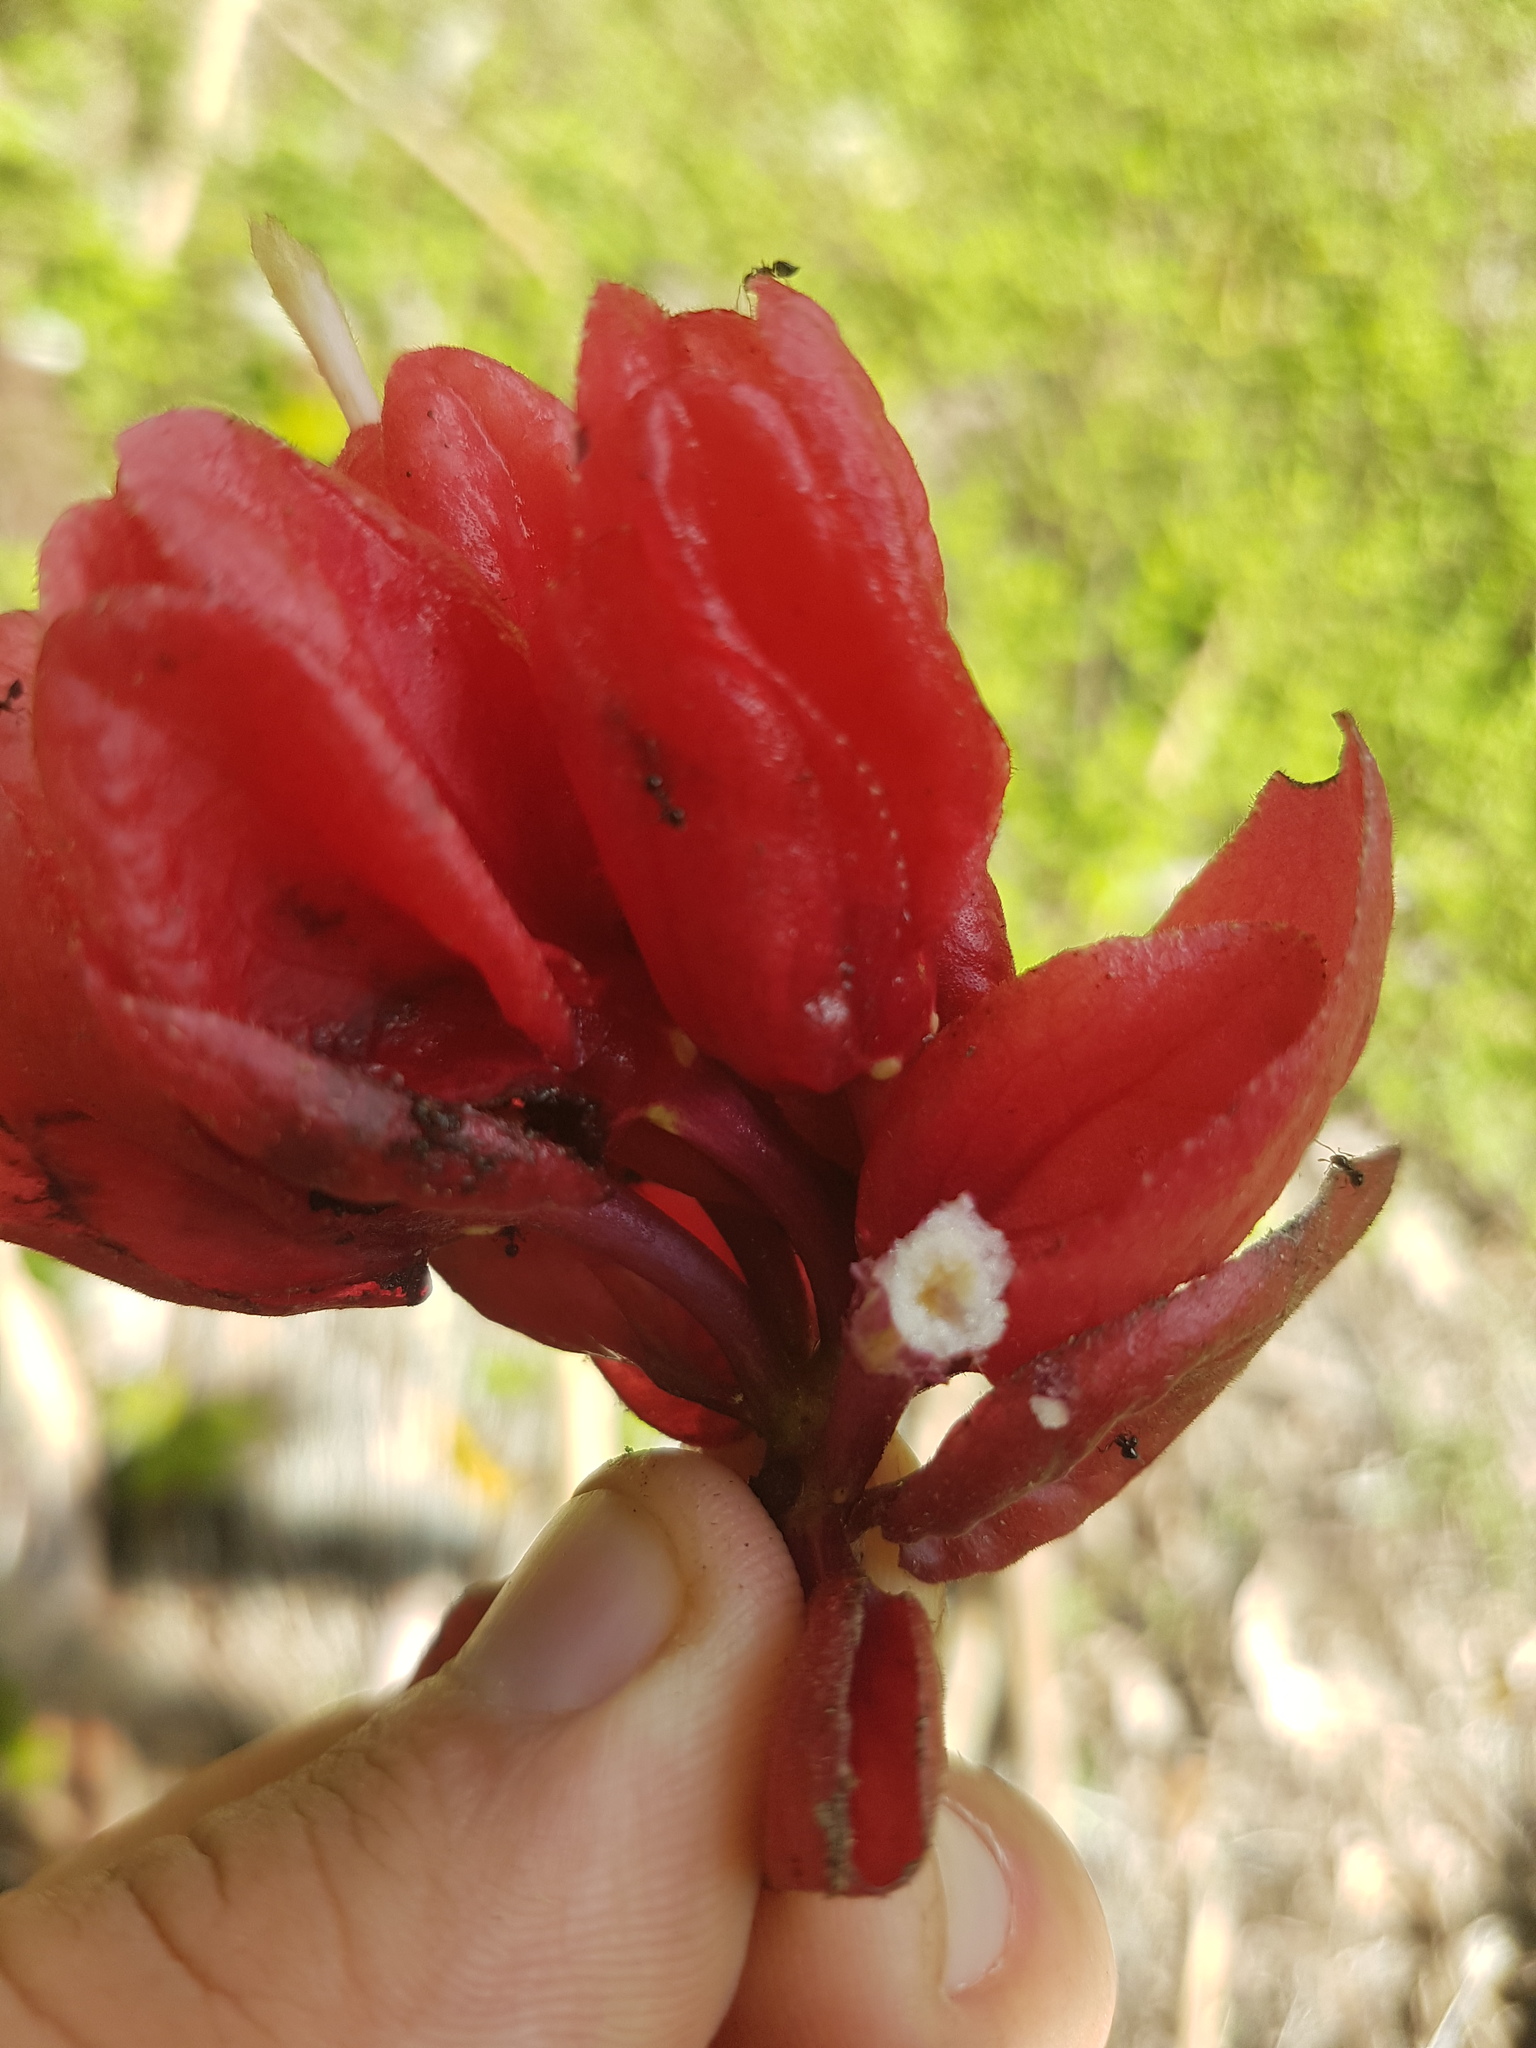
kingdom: Plantae
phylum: Tracheophyta
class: Magnoliopsida
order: Lamiales
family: Gesneriaceae
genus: Drymonia
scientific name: Drymonia coccinea
